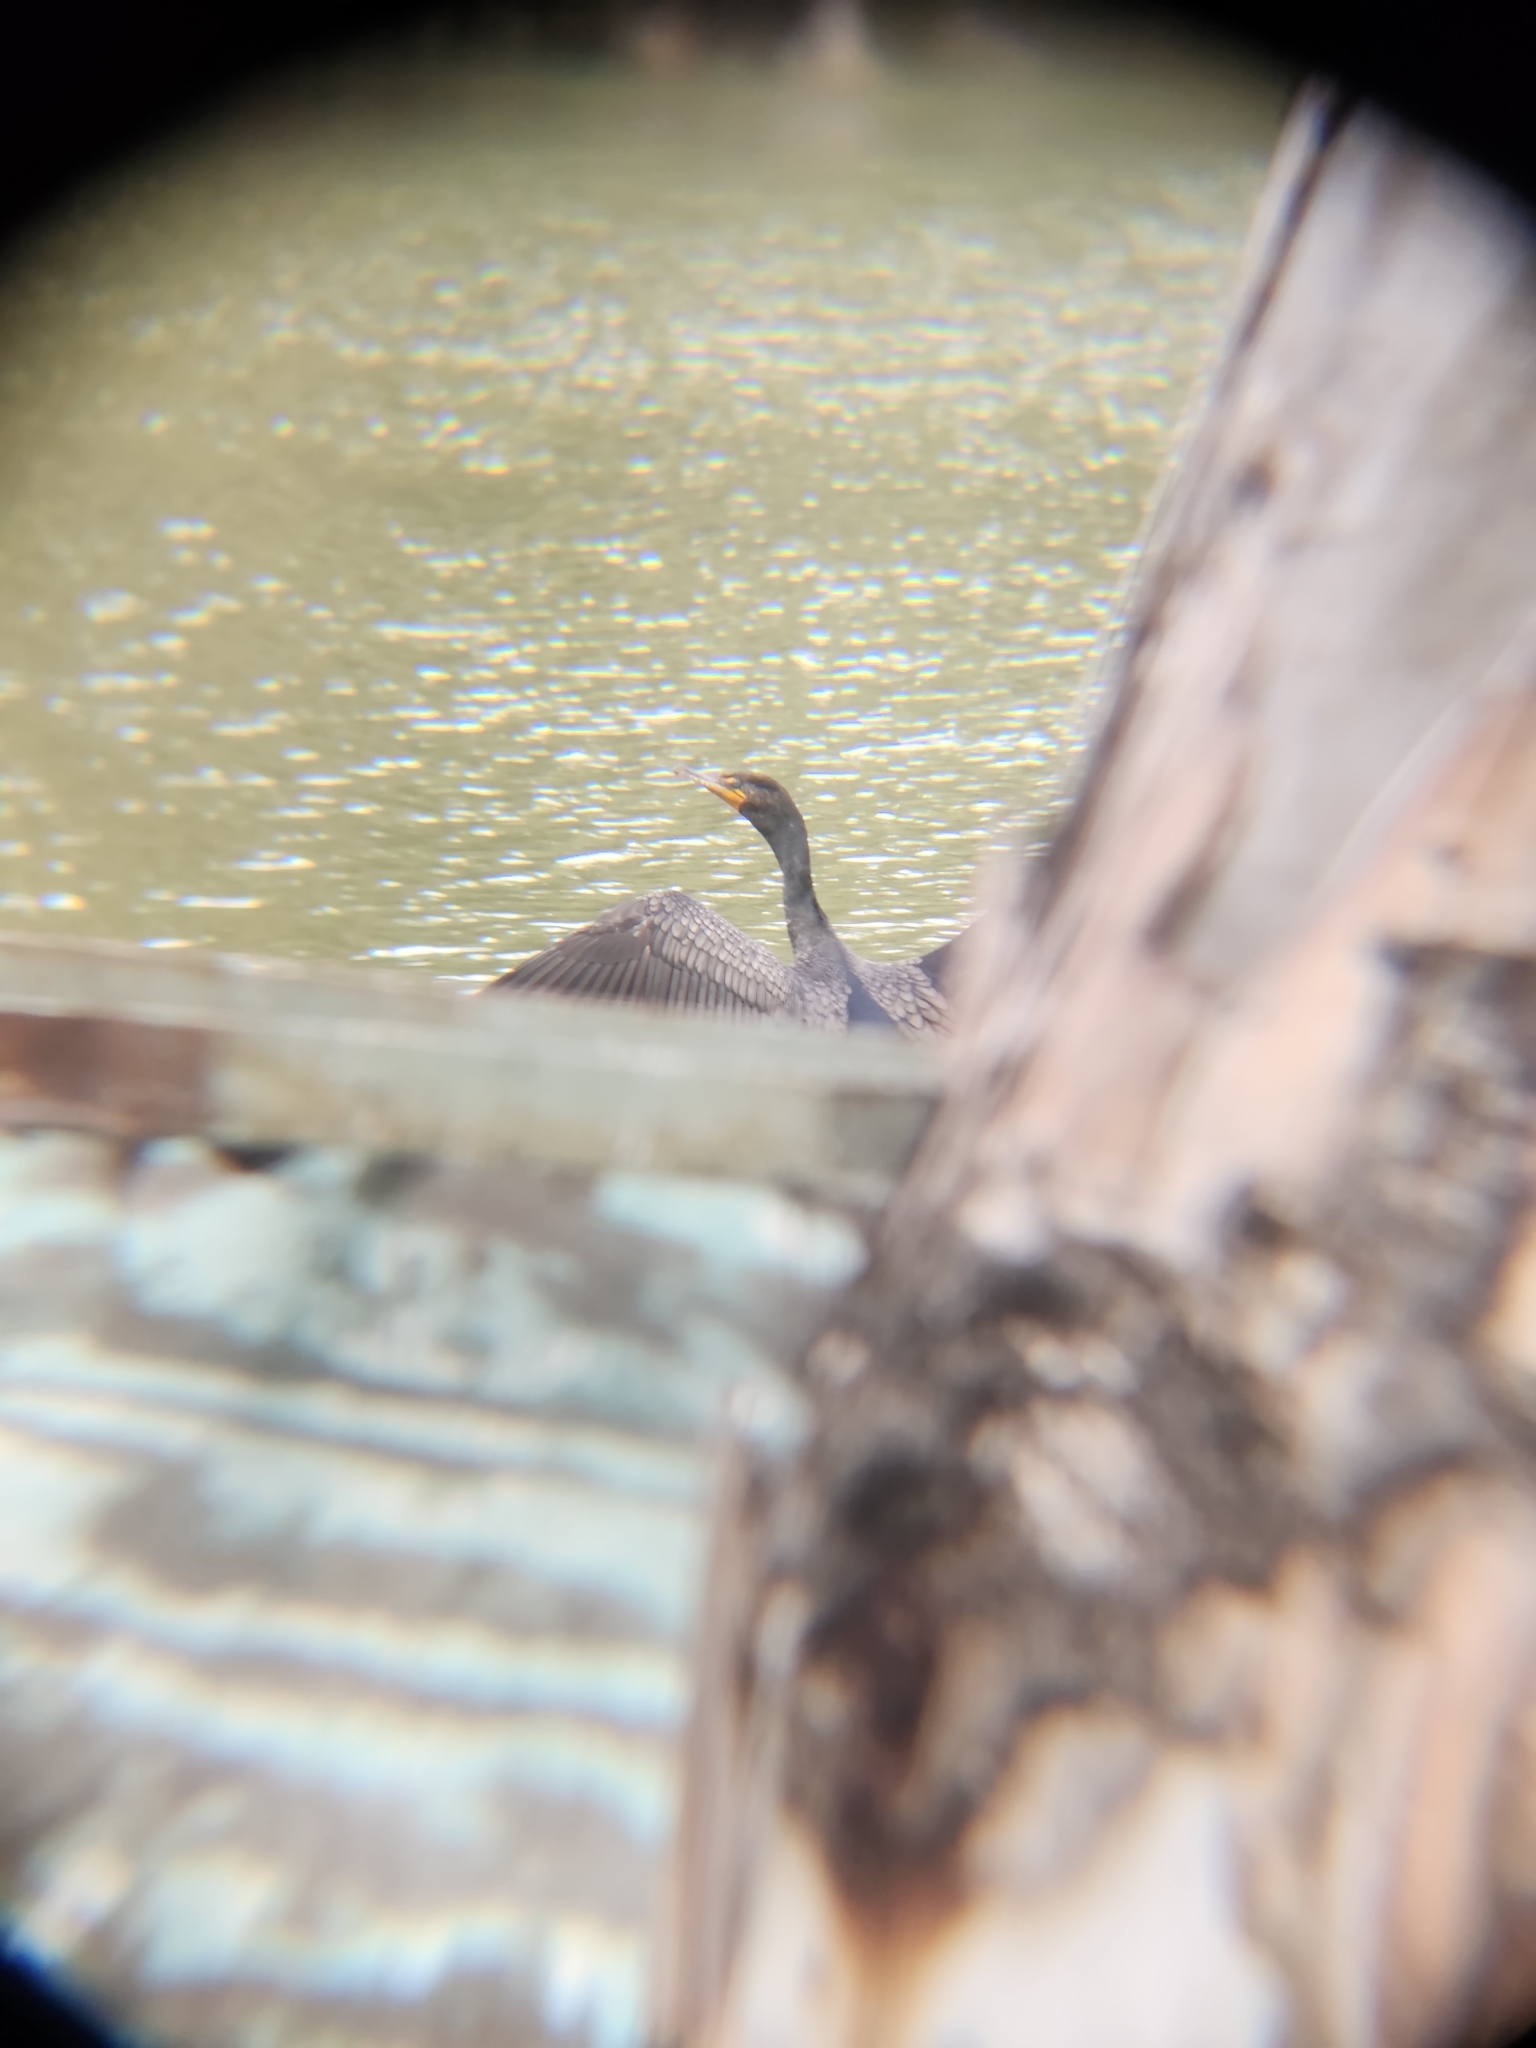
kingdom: Animalia
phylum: Chordata
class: Aves
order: Suliformes
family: Phalacrocoracidae
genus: Phalacrocorax
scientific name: Phalacrocorax auritus
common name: Double-crested cormorant
